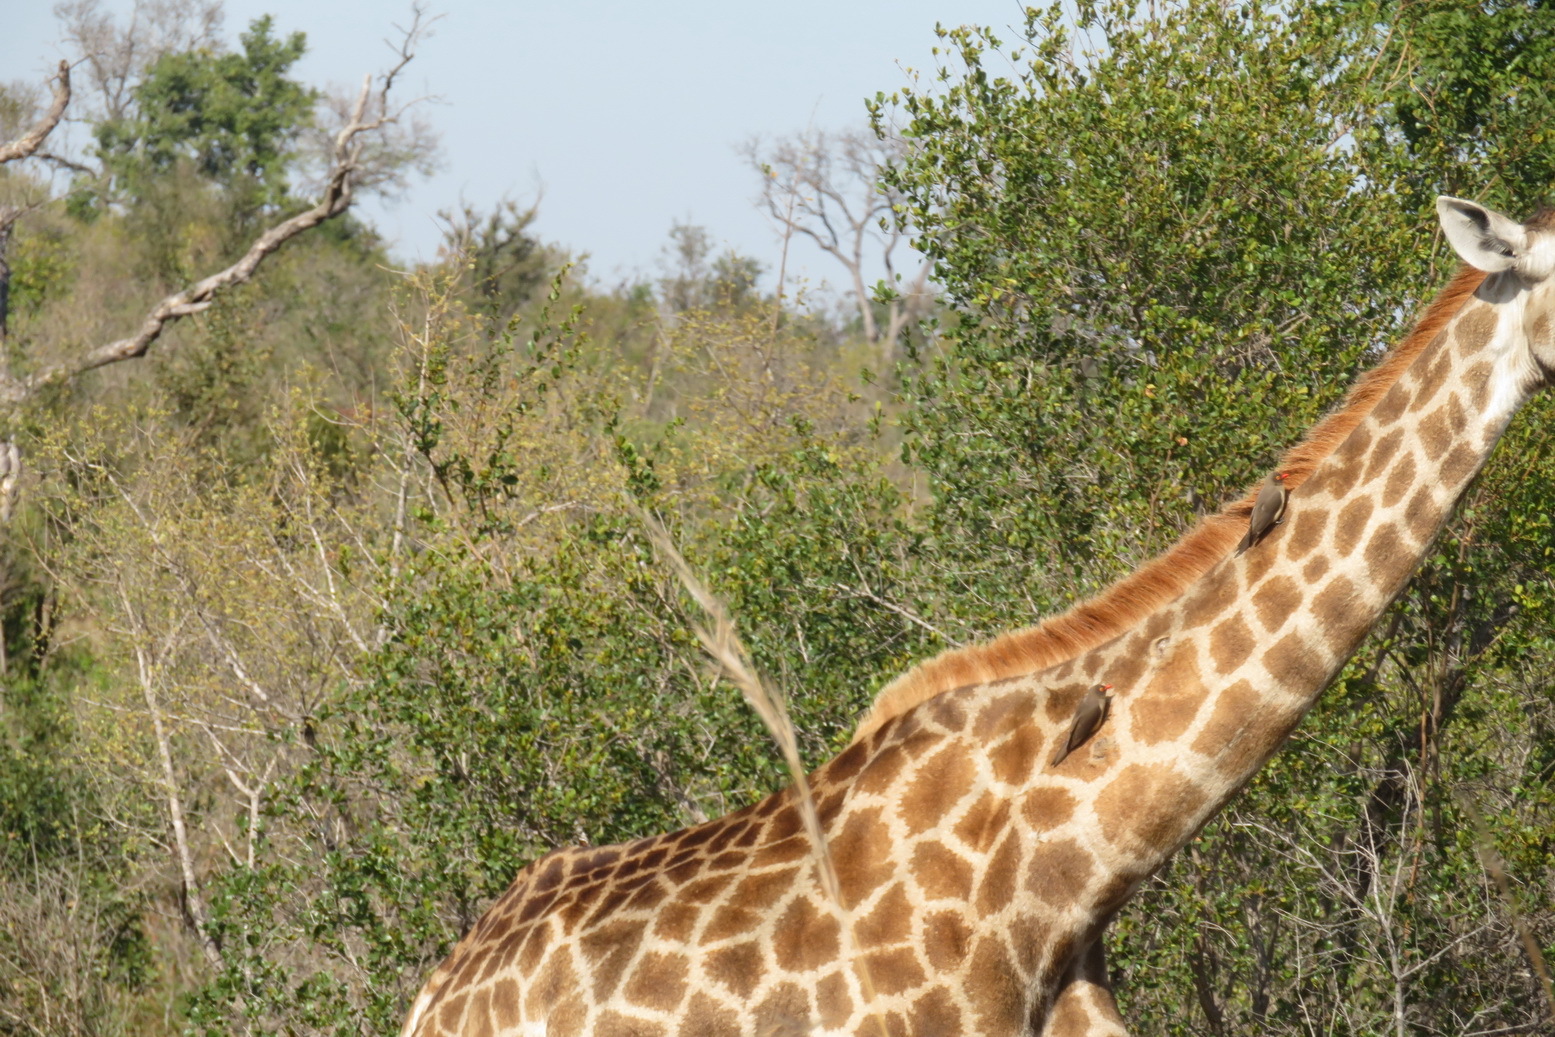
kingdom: Animalia
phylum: Chordata
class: Aves
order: Passeriformes
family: Buphagidae
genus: Buphagus
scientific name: Buphagus erythrorhynchus
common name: Red-billed oxpecker
